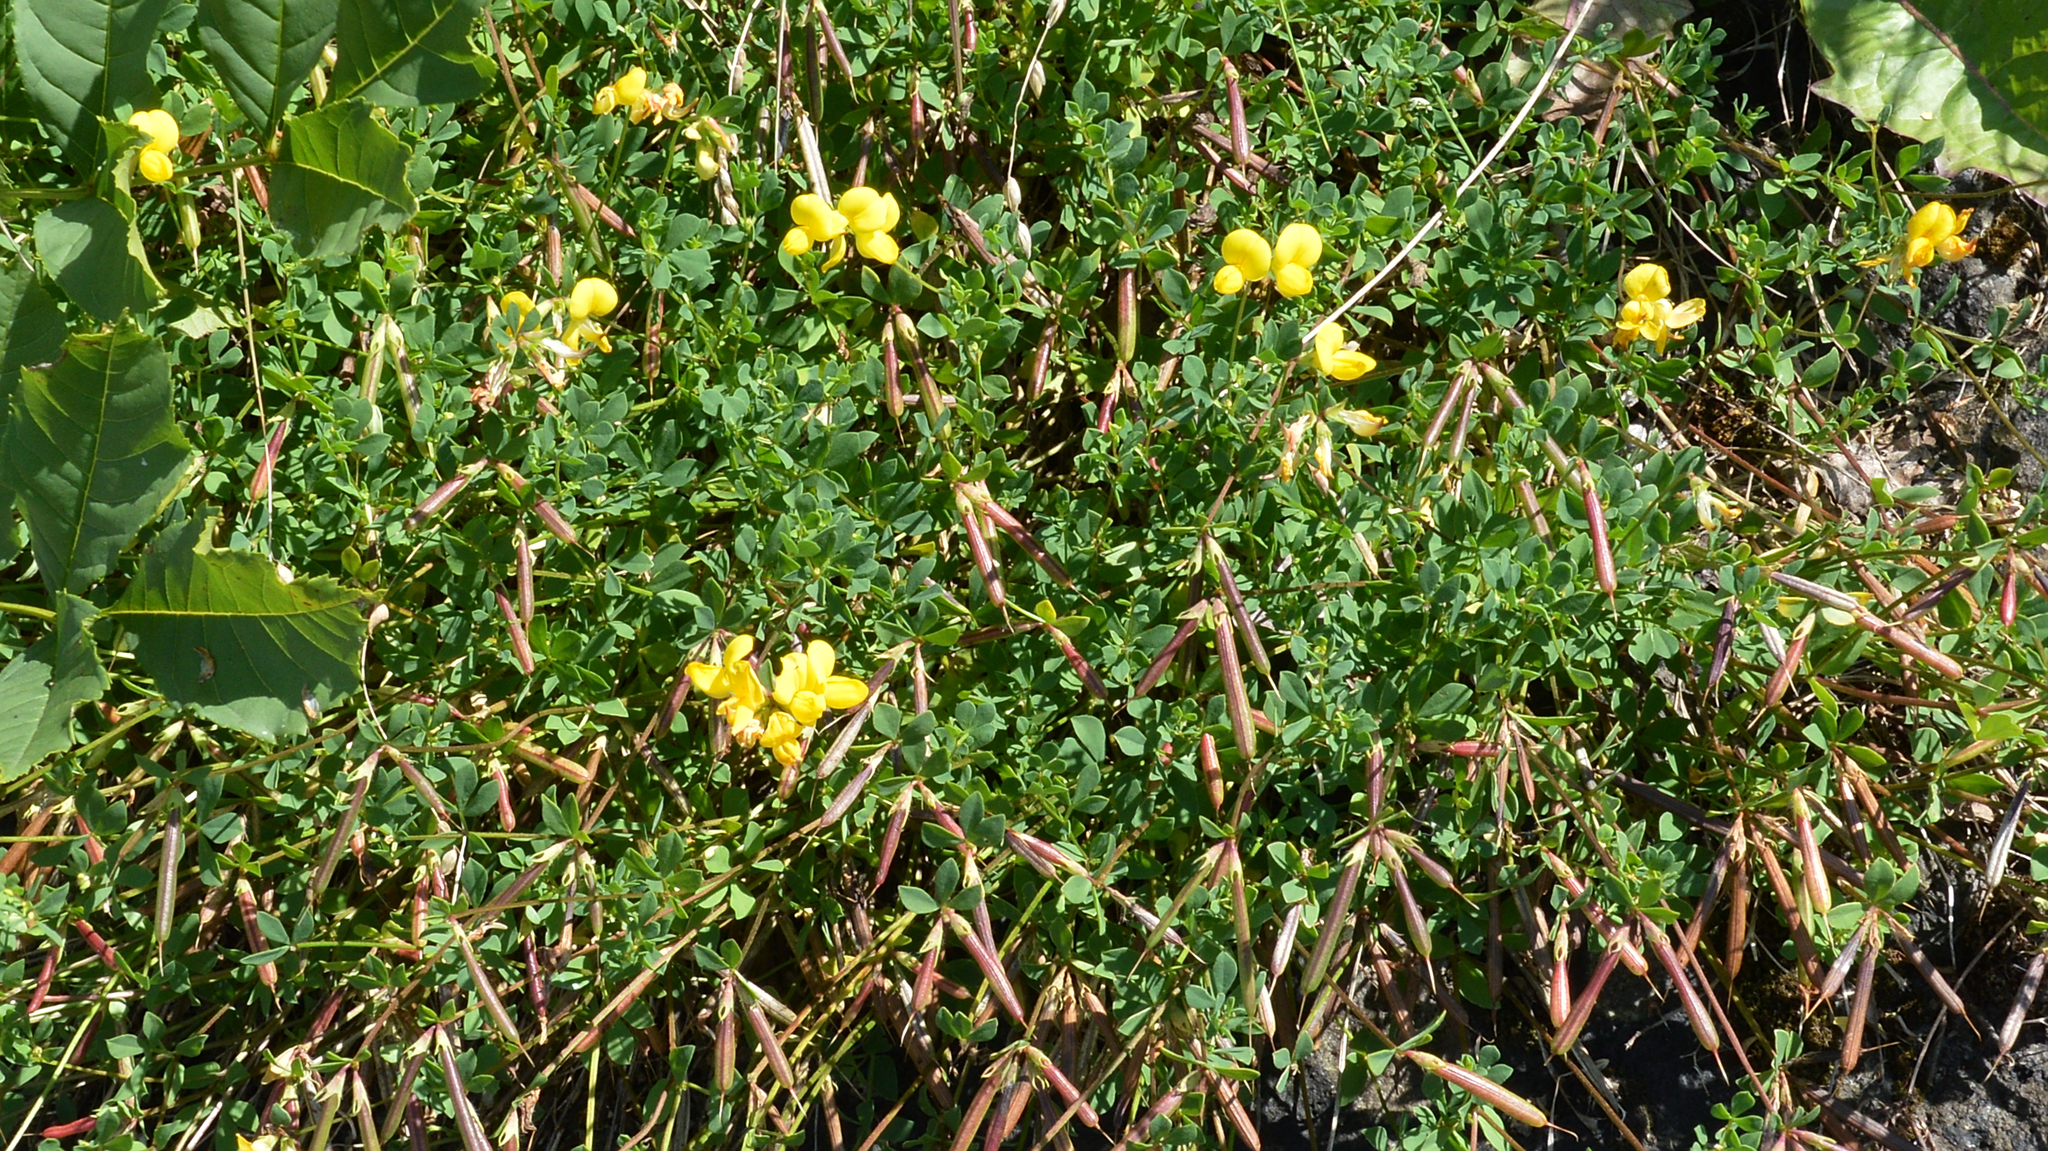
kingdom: Plantae
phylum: Tracheophyta
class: Magnoliopsida
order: Fabales
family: Fabaceae
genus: Lotus
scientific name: Lotus corniculatus
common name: Common bird's-foot-trefoil
